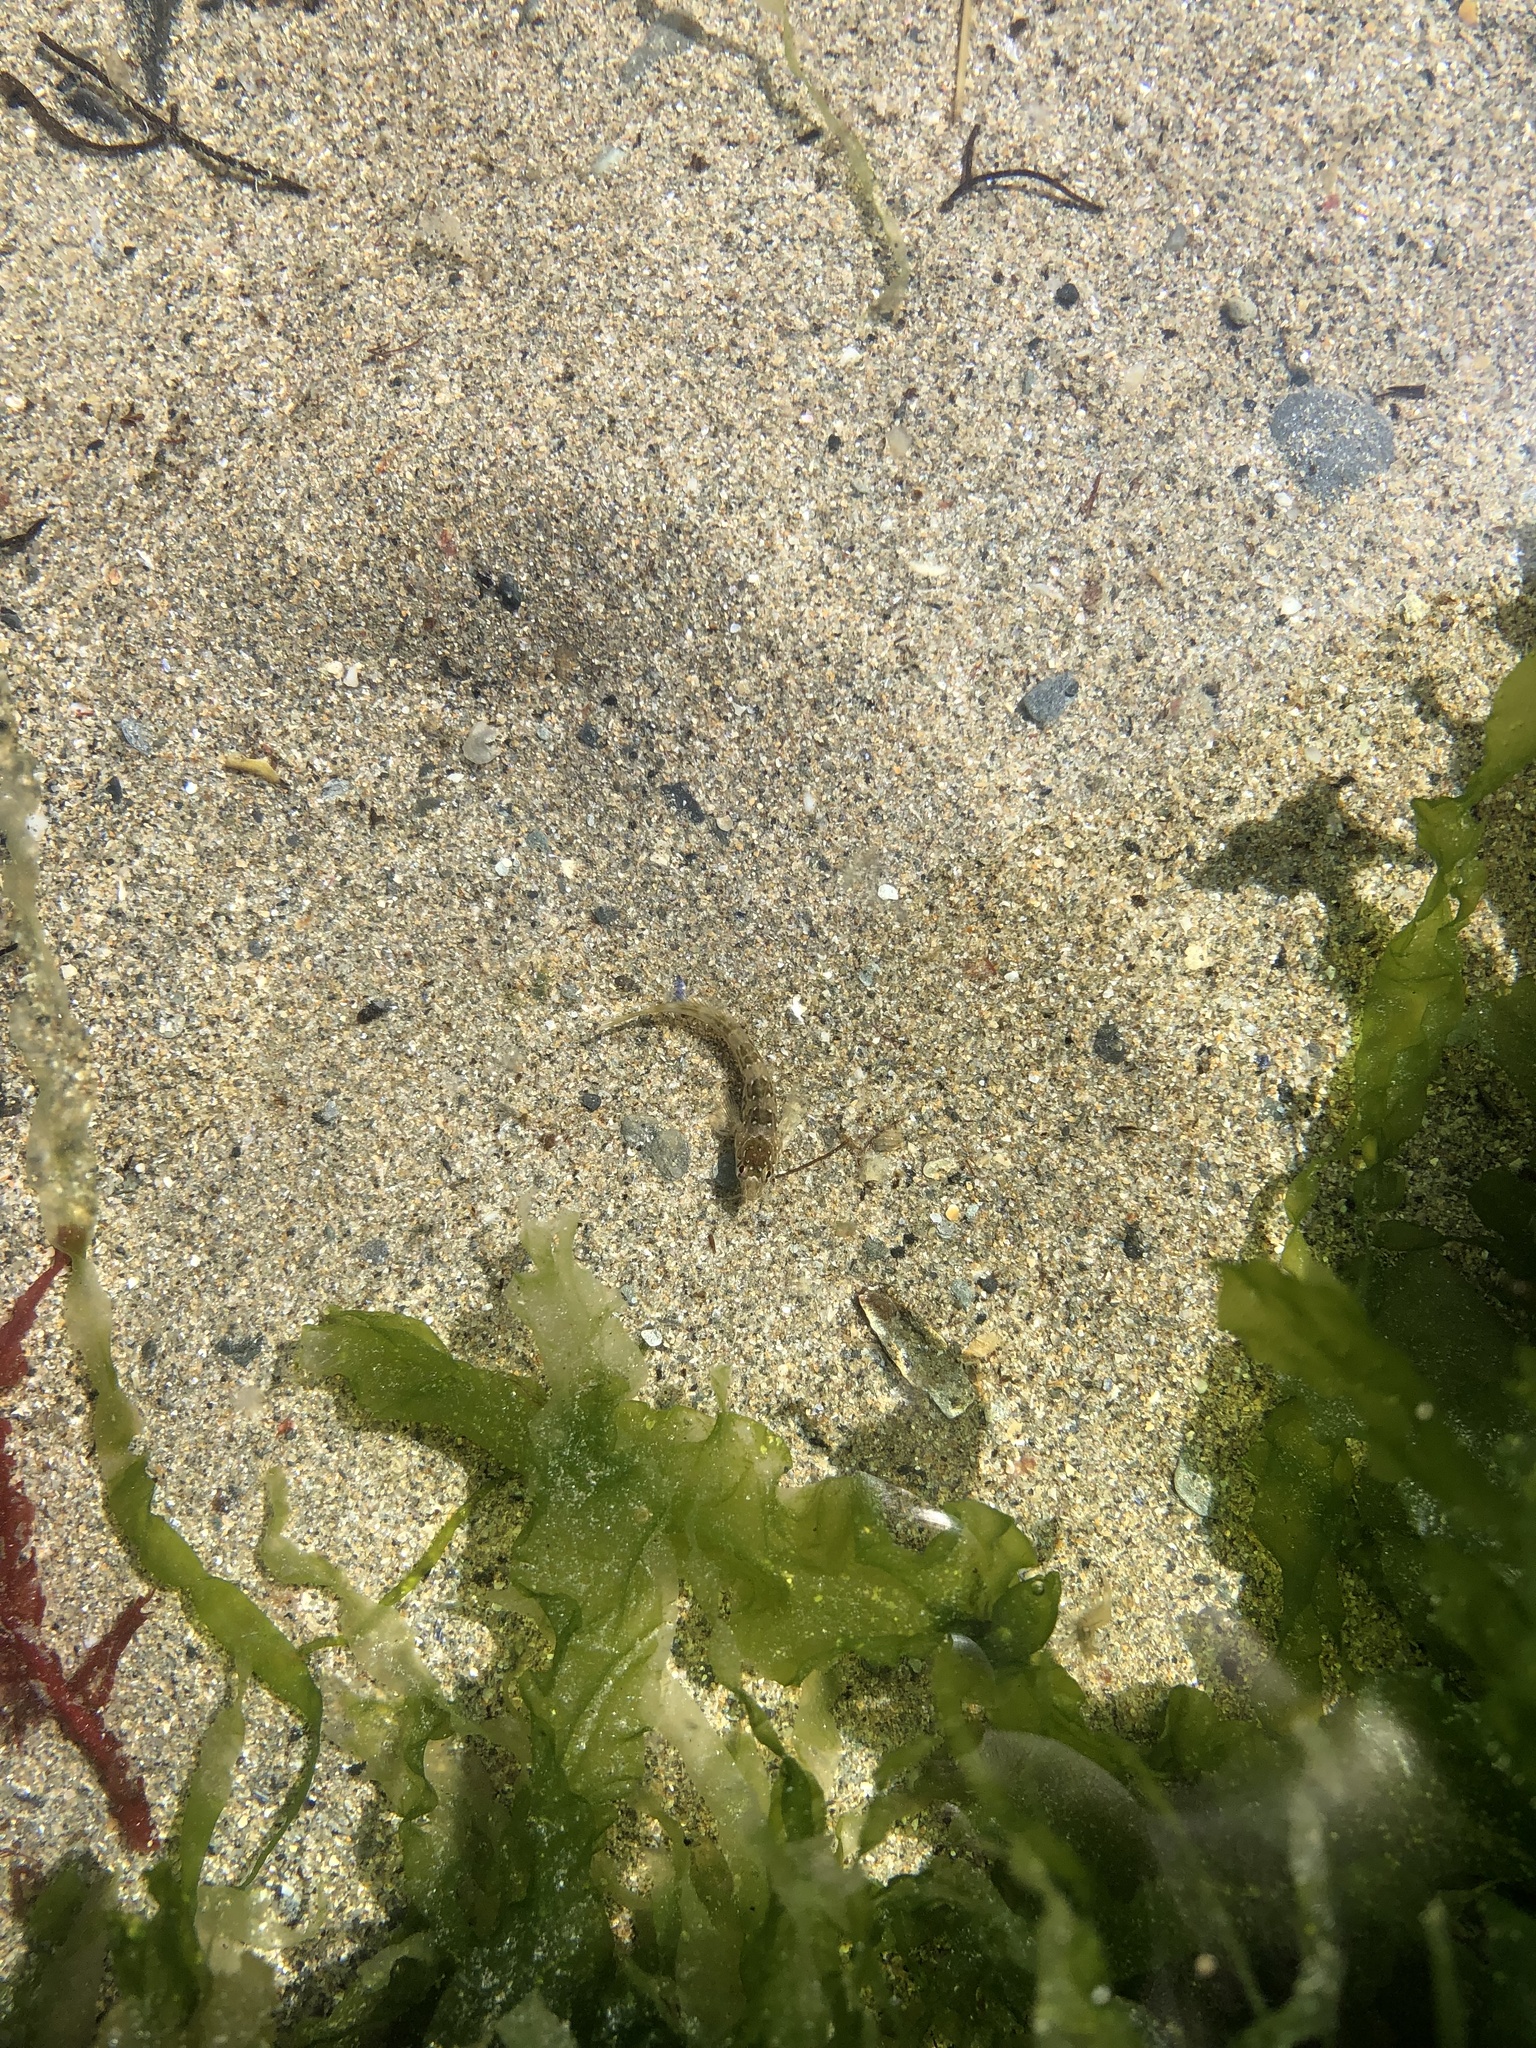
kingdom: Animalia
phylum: Chordata
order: Perciformes
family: Blenniidae
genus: Lipophrys
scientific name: Lipophrys pholis
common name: Shanny
